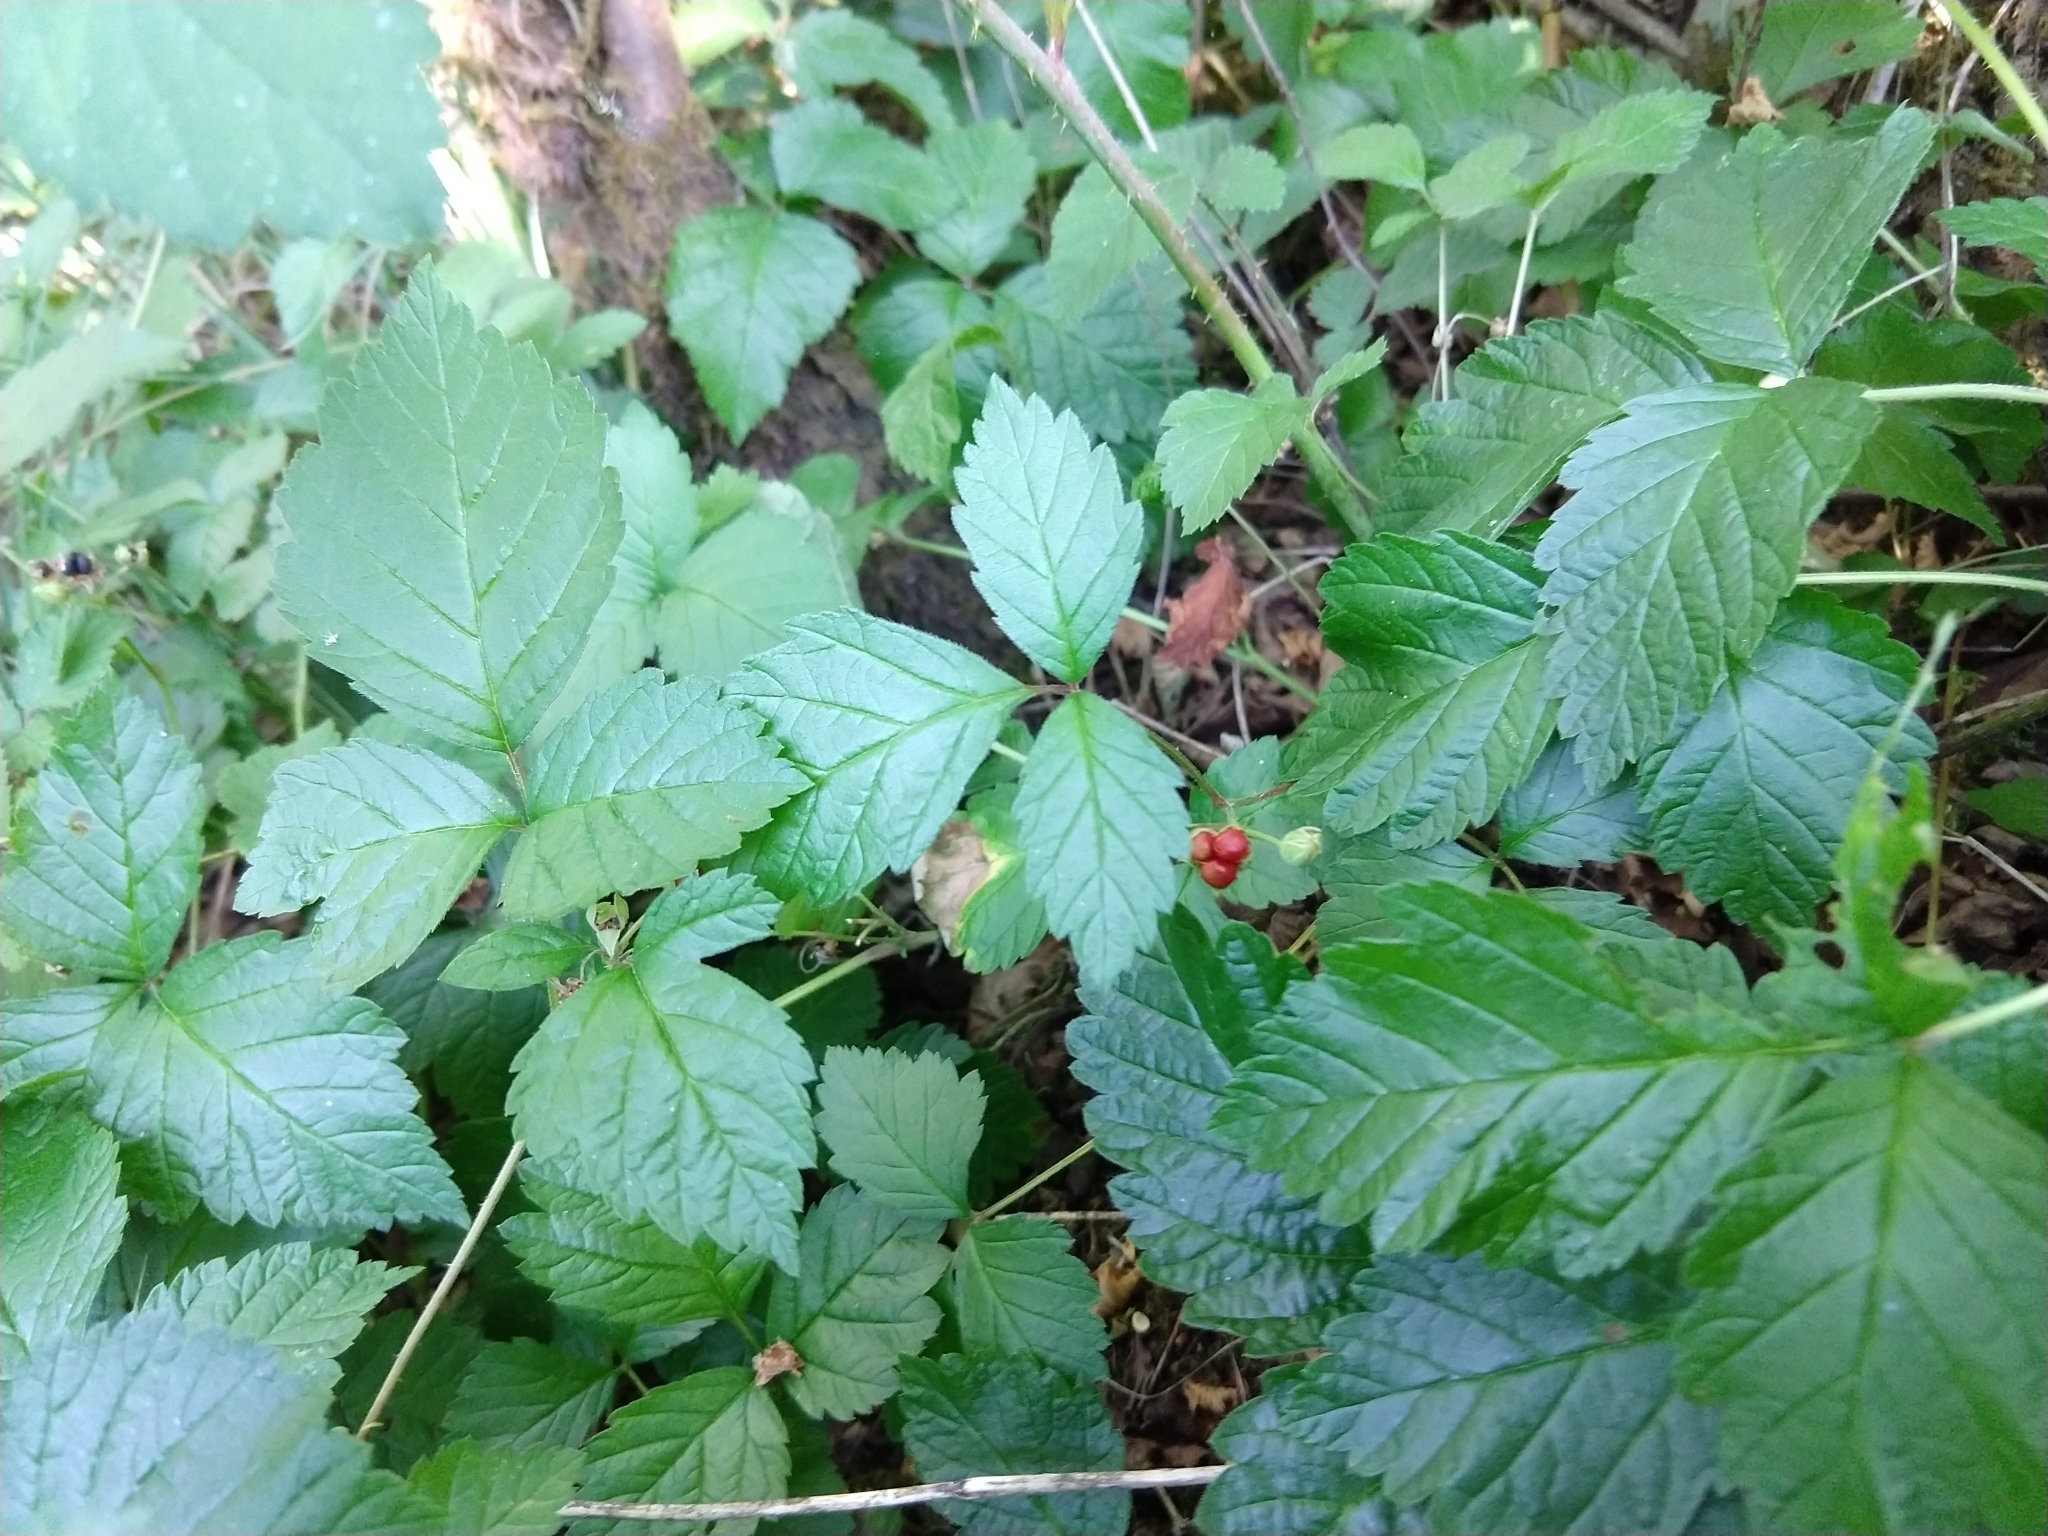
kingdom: Plantae
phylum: Tracheophyta
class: Magnoliopsida
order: Rosales
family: Rosaceae
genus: Rubus
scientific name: Rubus saxatilis
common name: Stone bramble
